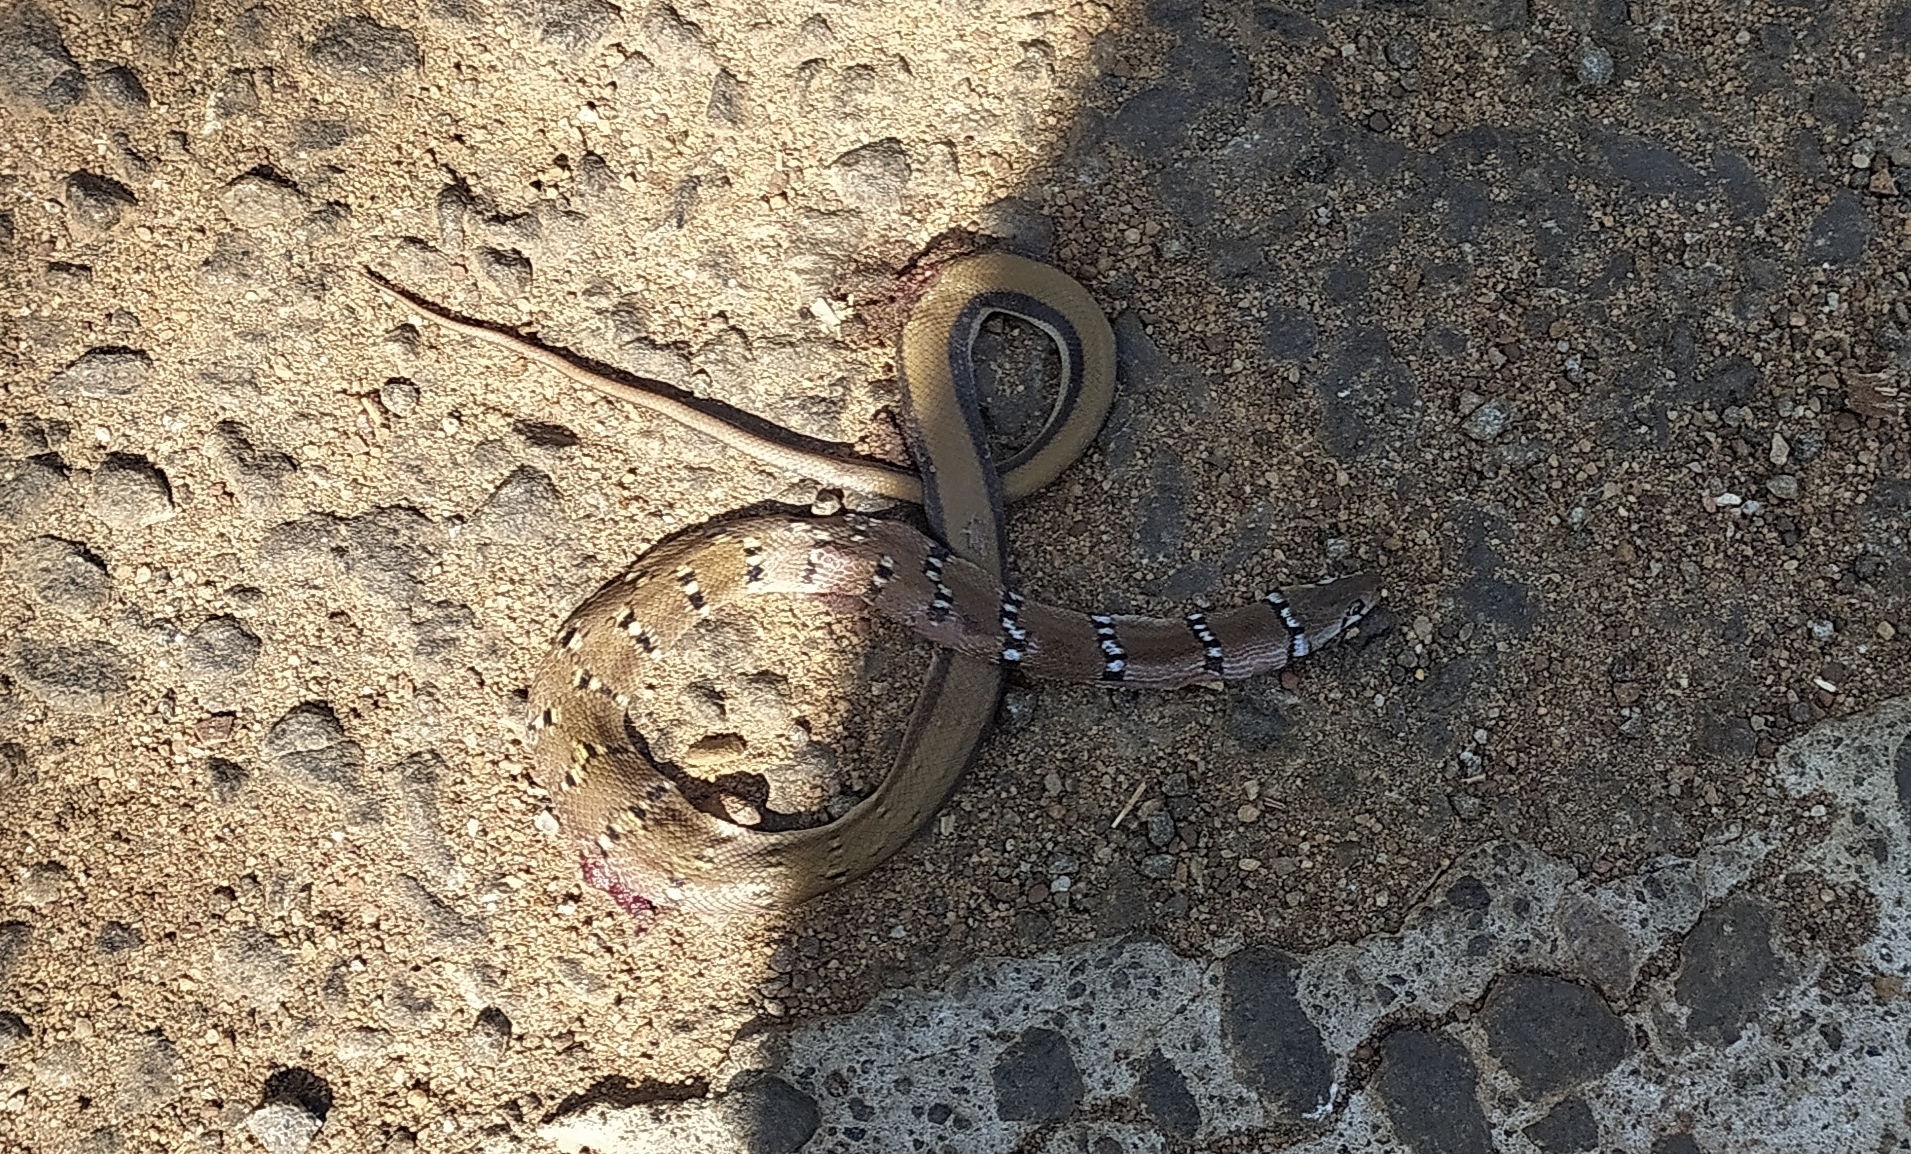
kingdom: Animalia
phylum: Chordata
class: Squamata
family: Colubridae
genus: Coelognathus
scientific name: Coelognathus helena
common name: Trinket snake
